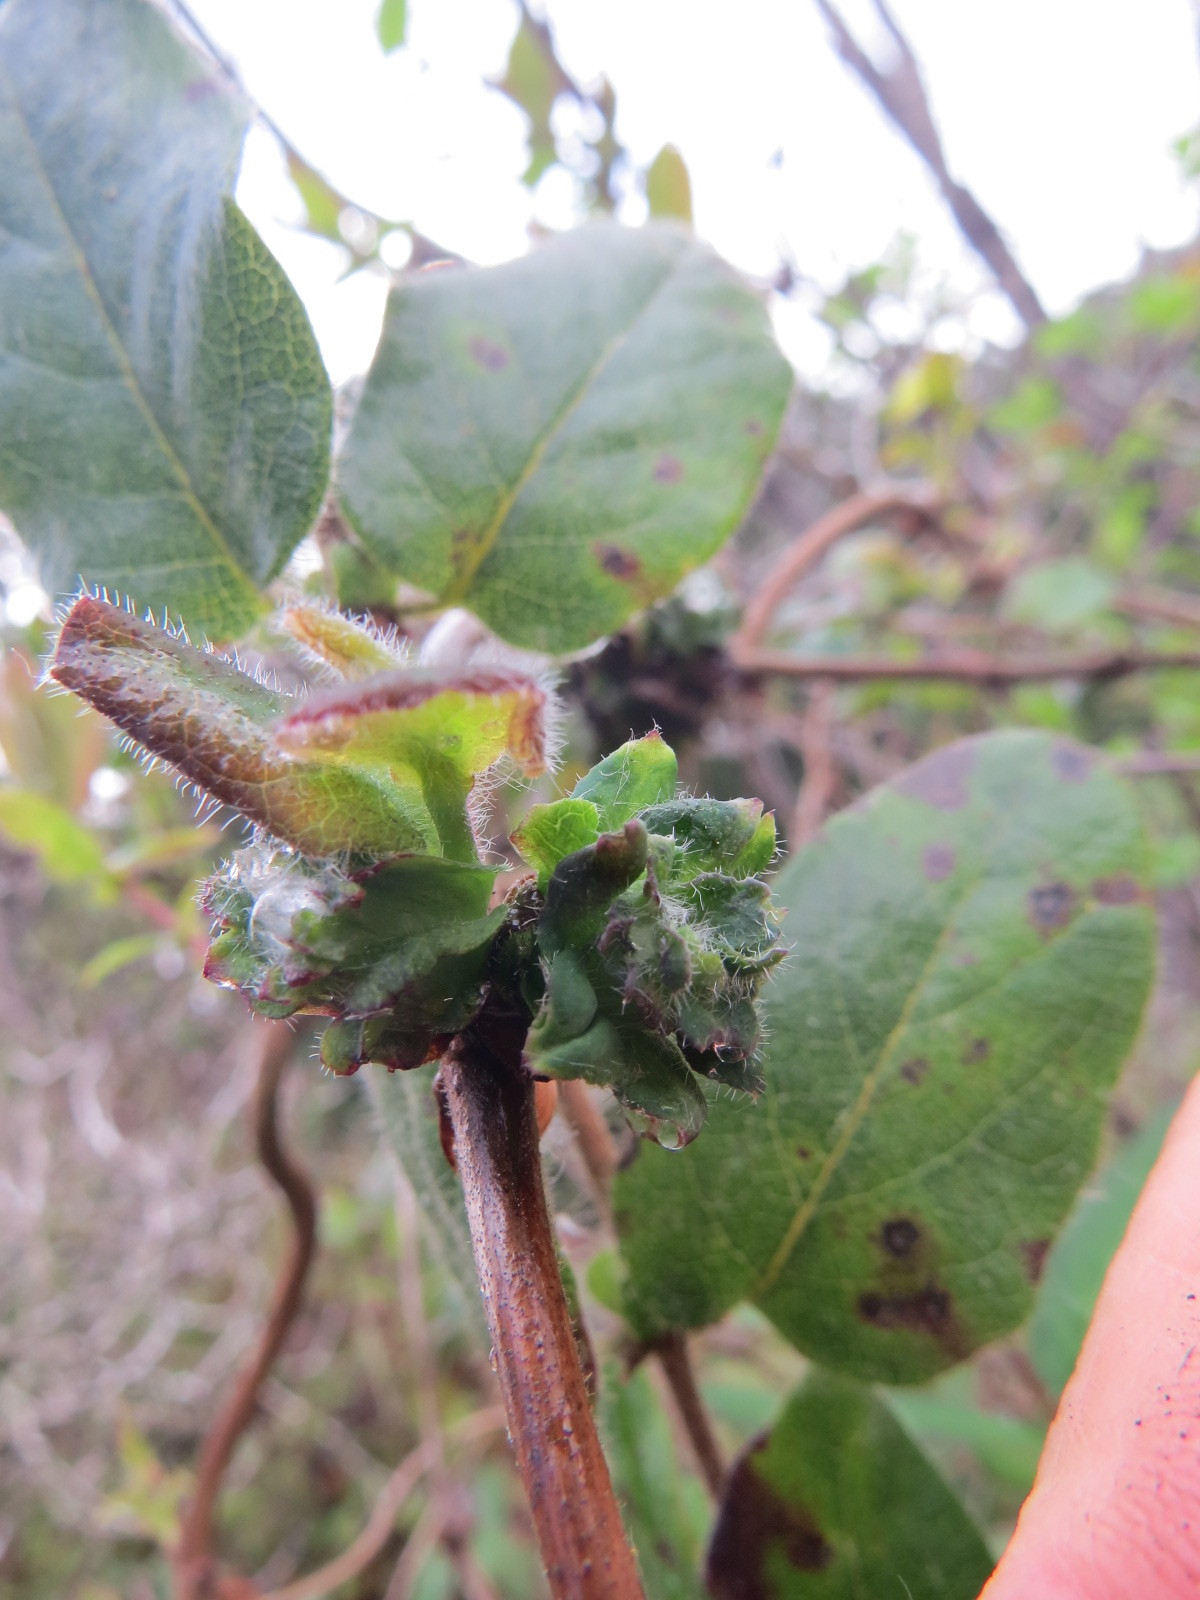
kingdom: Animalia
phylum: Arthropoda
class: Insecta
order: Diptera
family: Cecidomyiidae
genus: Lonicerae
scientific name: Lonicerae russoi
